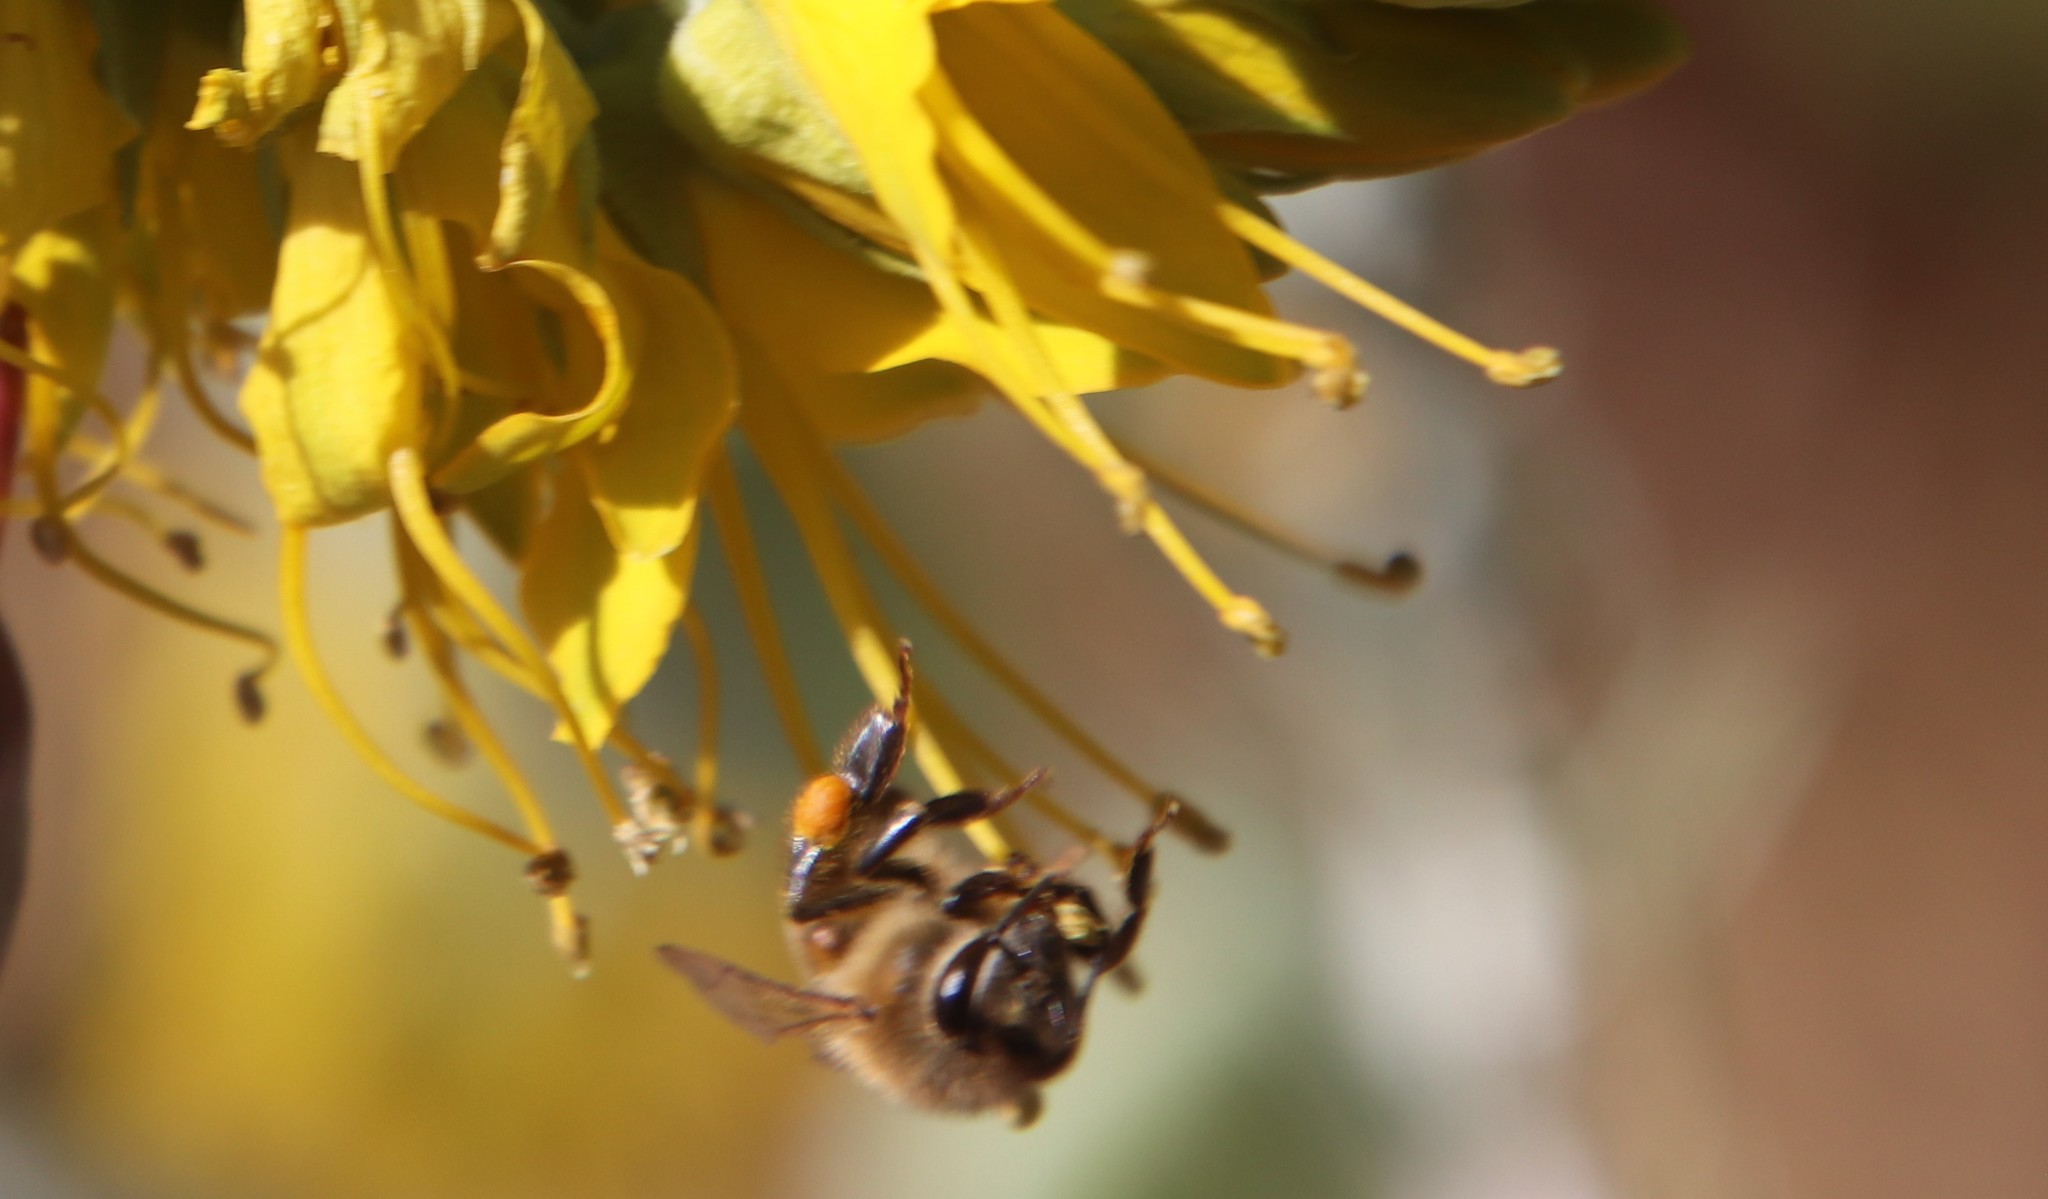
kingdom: Animalia
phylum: Arthropoda
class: Insecta
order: Hymenoptera
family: Apidae
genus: Apis
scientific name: Apis mellifera
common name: Honey bee
